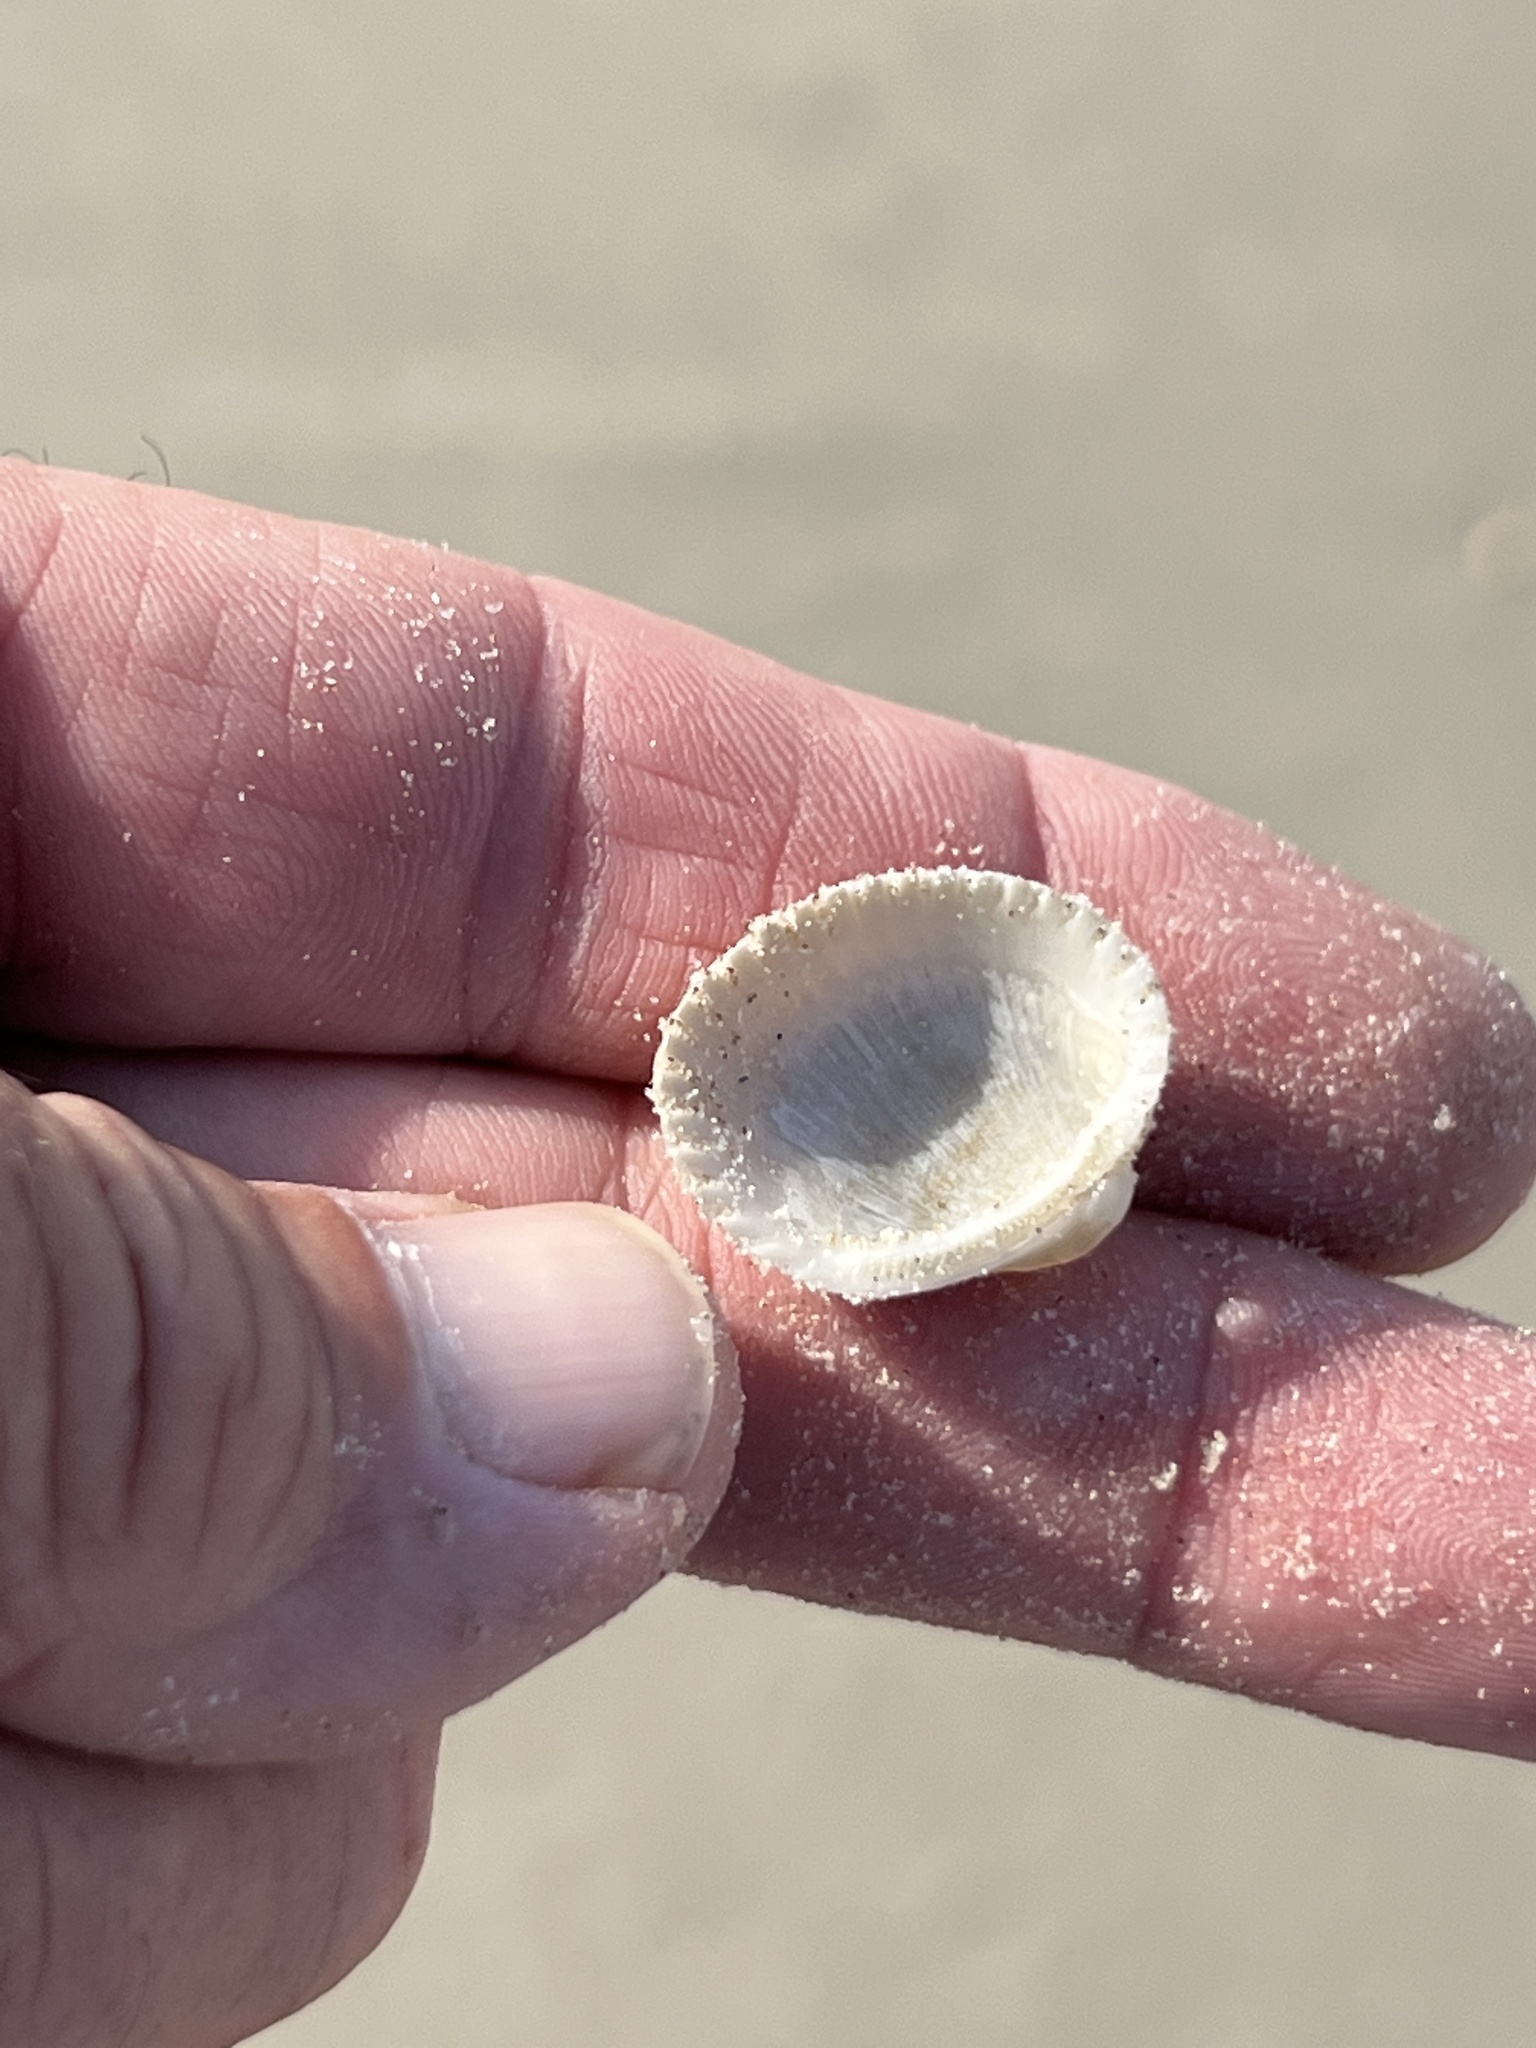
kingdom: Animalia
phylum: Mollusca
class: Bivalvia
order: Arcida
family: Arcidae
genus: Lunarca
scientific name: Lunarca ovalis
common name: Blood ark
